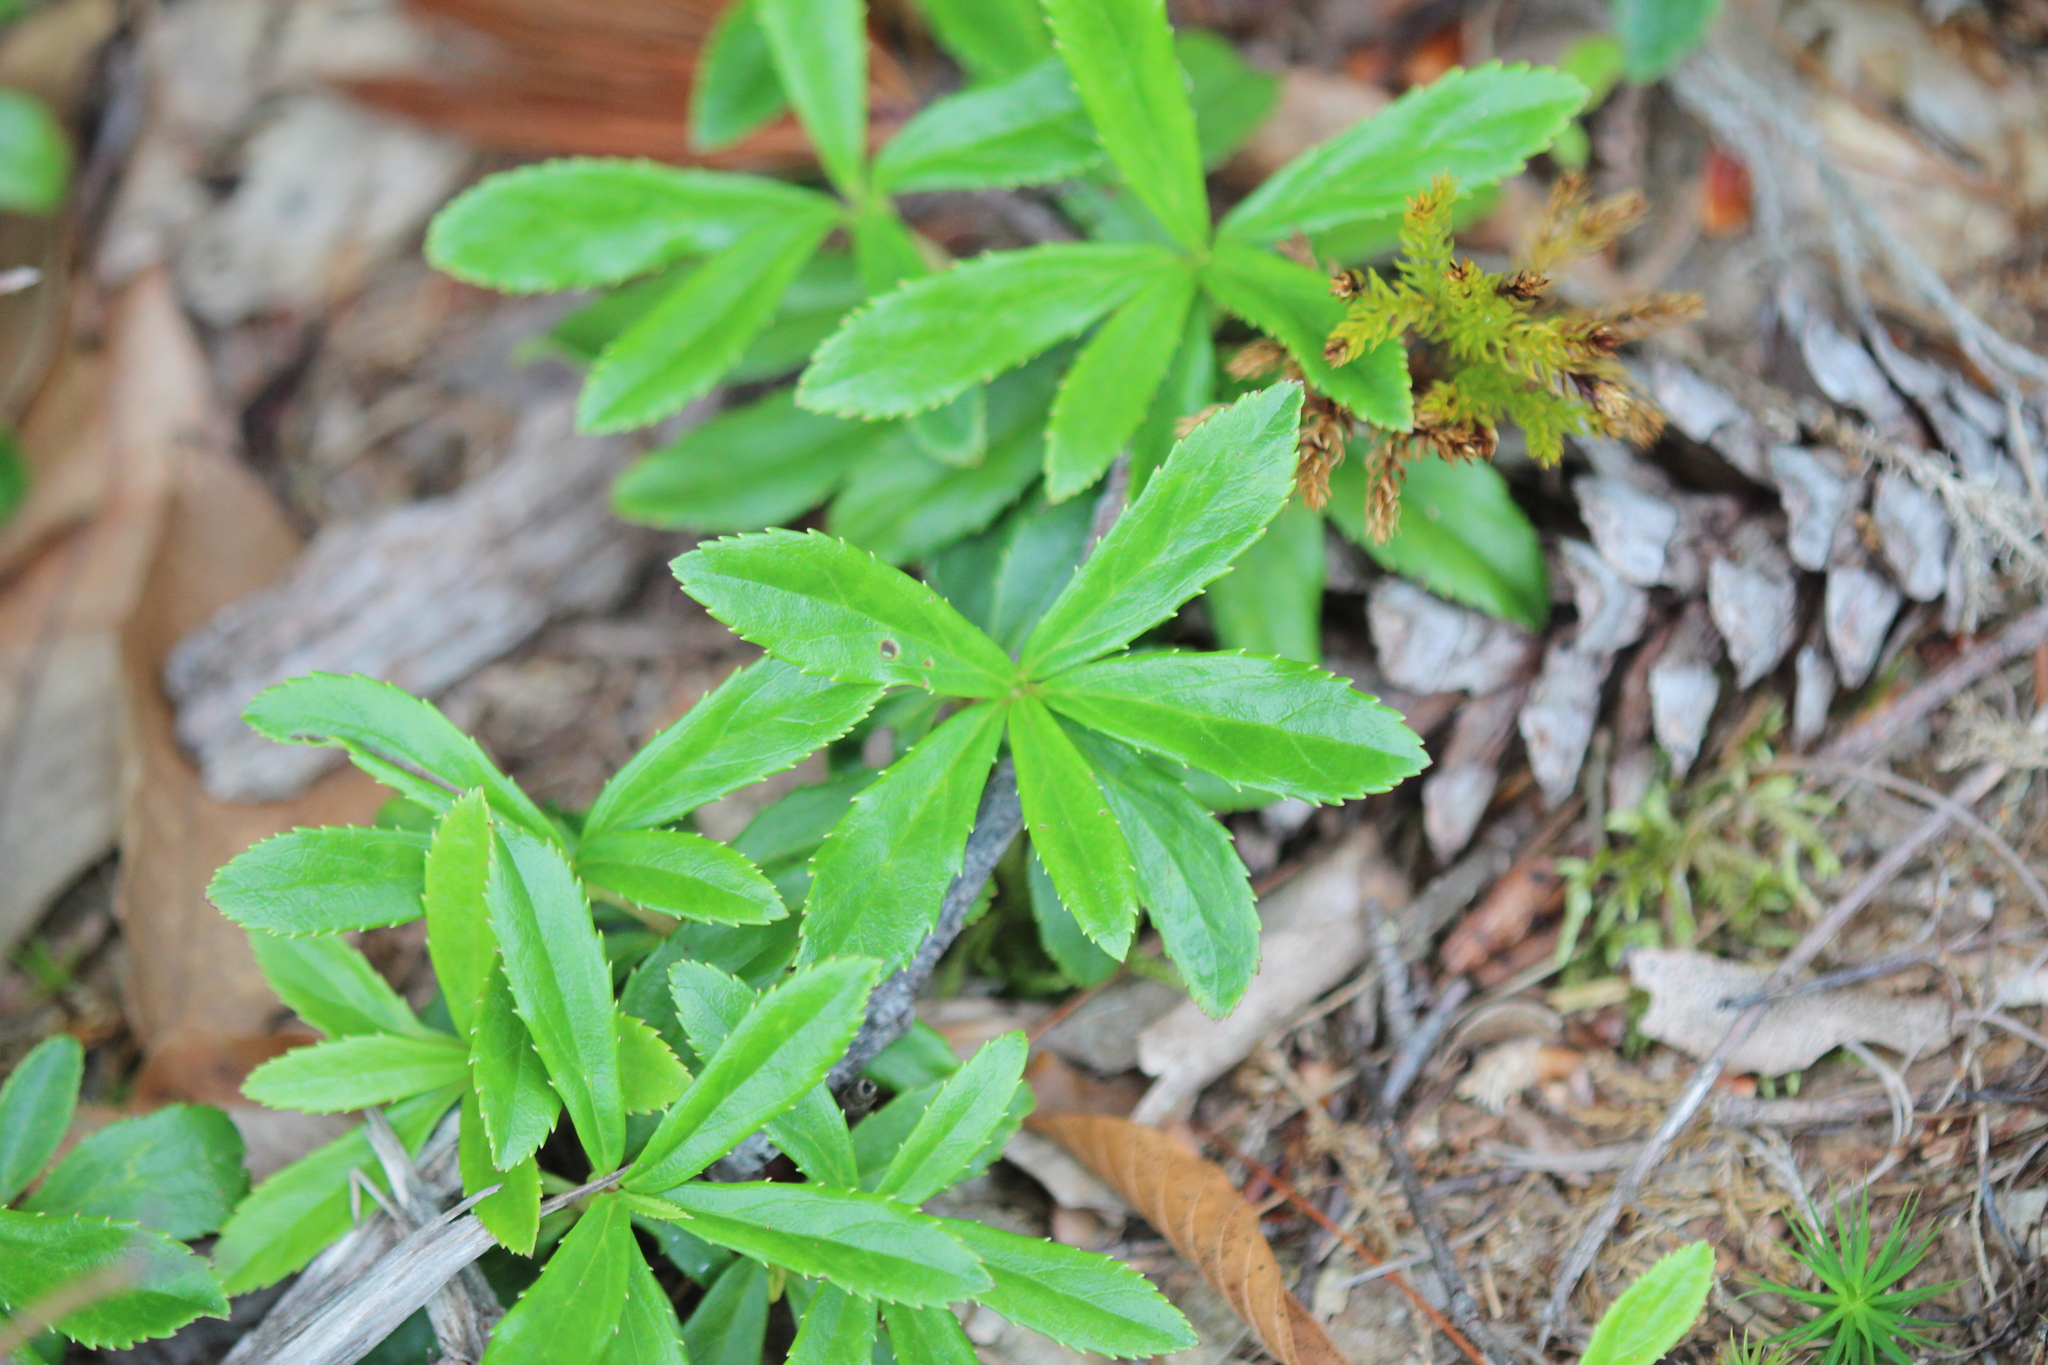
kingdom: Plantae
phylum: Tracheophyta
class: Magnoliopsida
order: Ericales
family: Ericaceae
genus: Chimaphila
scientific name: Chimaphila umbellata
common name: Pipsissewa
